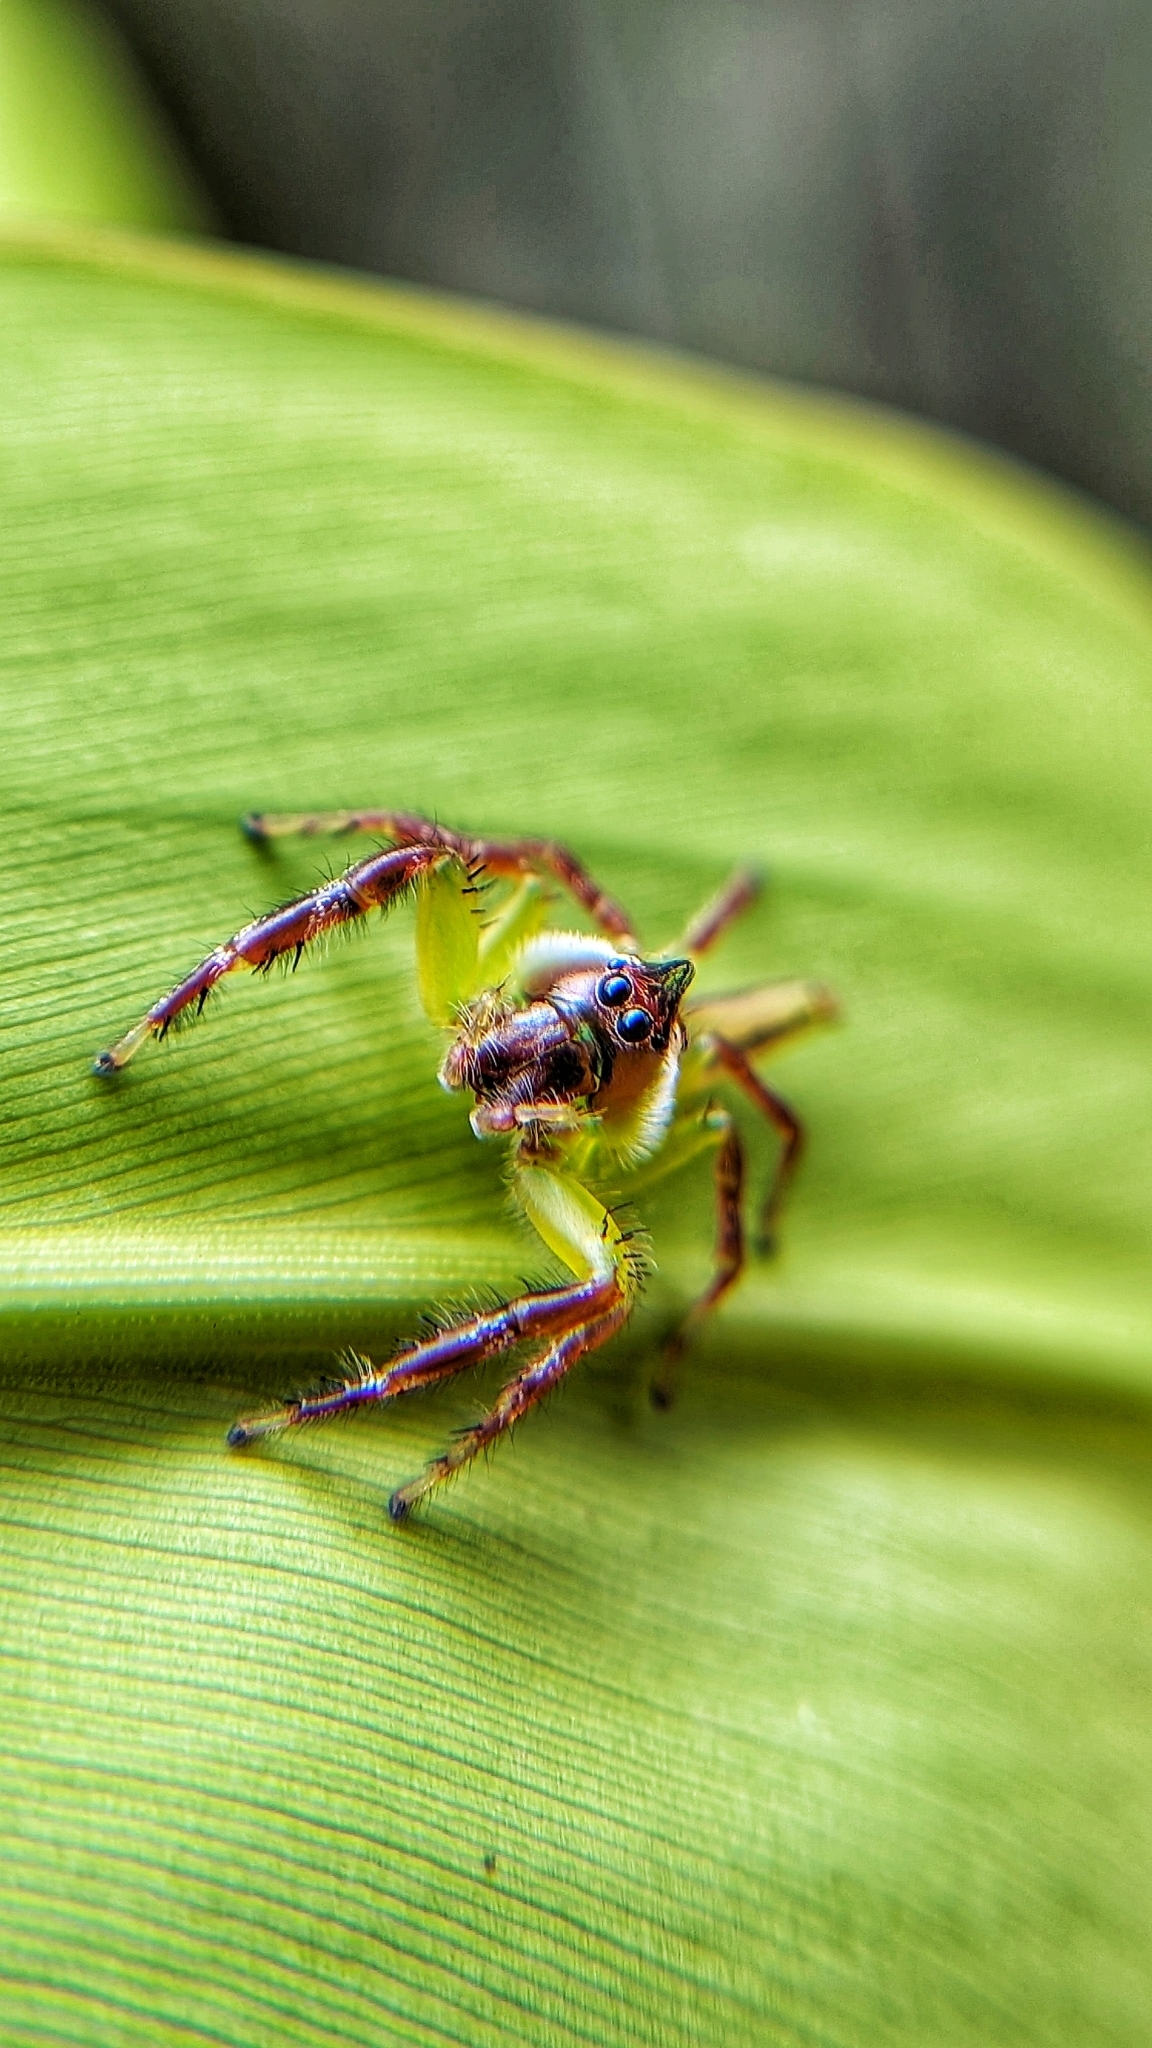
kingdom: Animalia
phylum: Arthropoda
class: Arachnida
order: Araneae
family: Salticidae
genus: Mopsus
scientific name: Mopsus mormon
